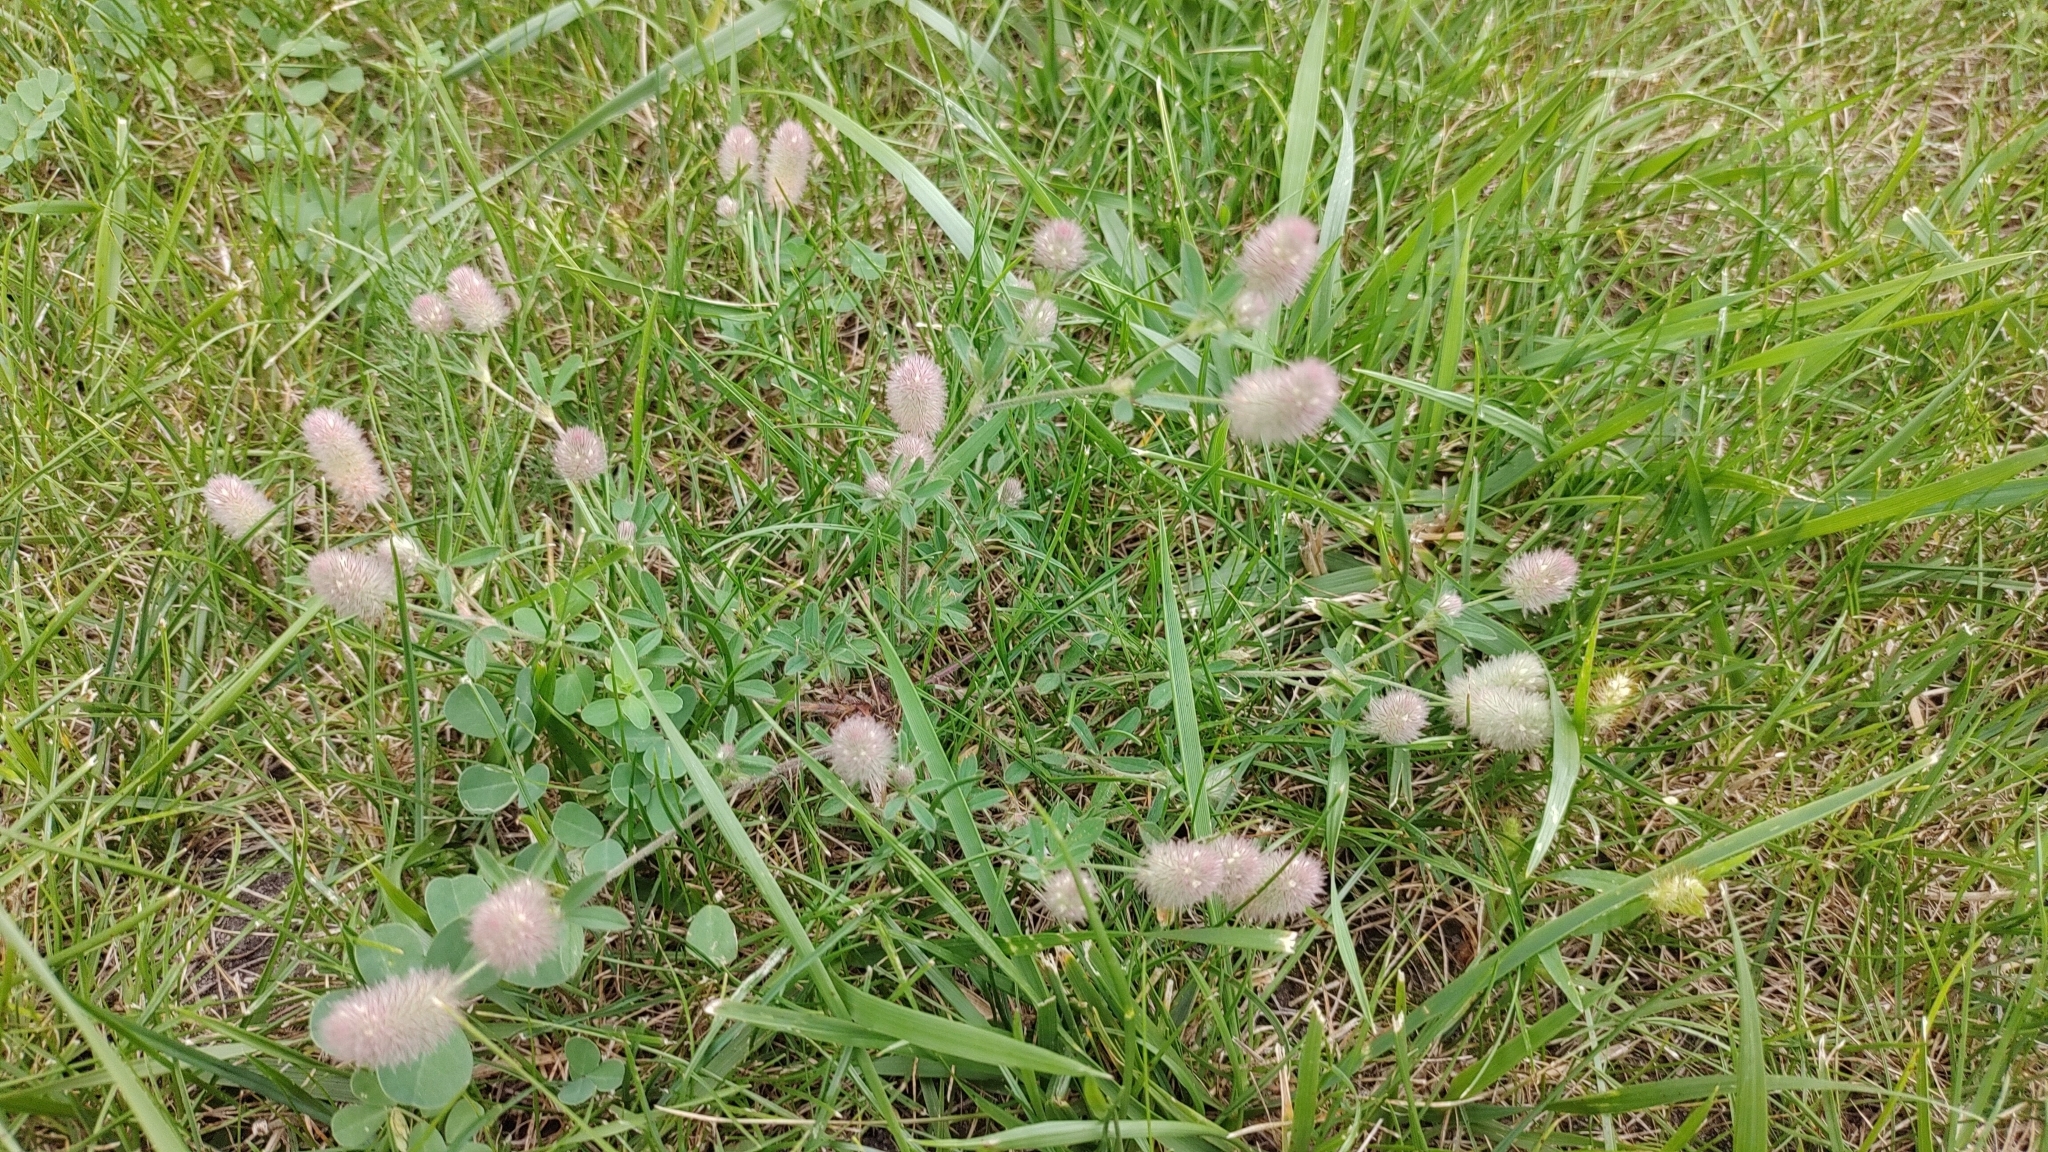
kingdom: Plantae
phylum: Tracheophyta
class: Magnoliopsida
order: Fabales
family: Fabaceae
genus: Trifolium
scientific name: Trifolium arvense
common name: Hare's-foot clover
